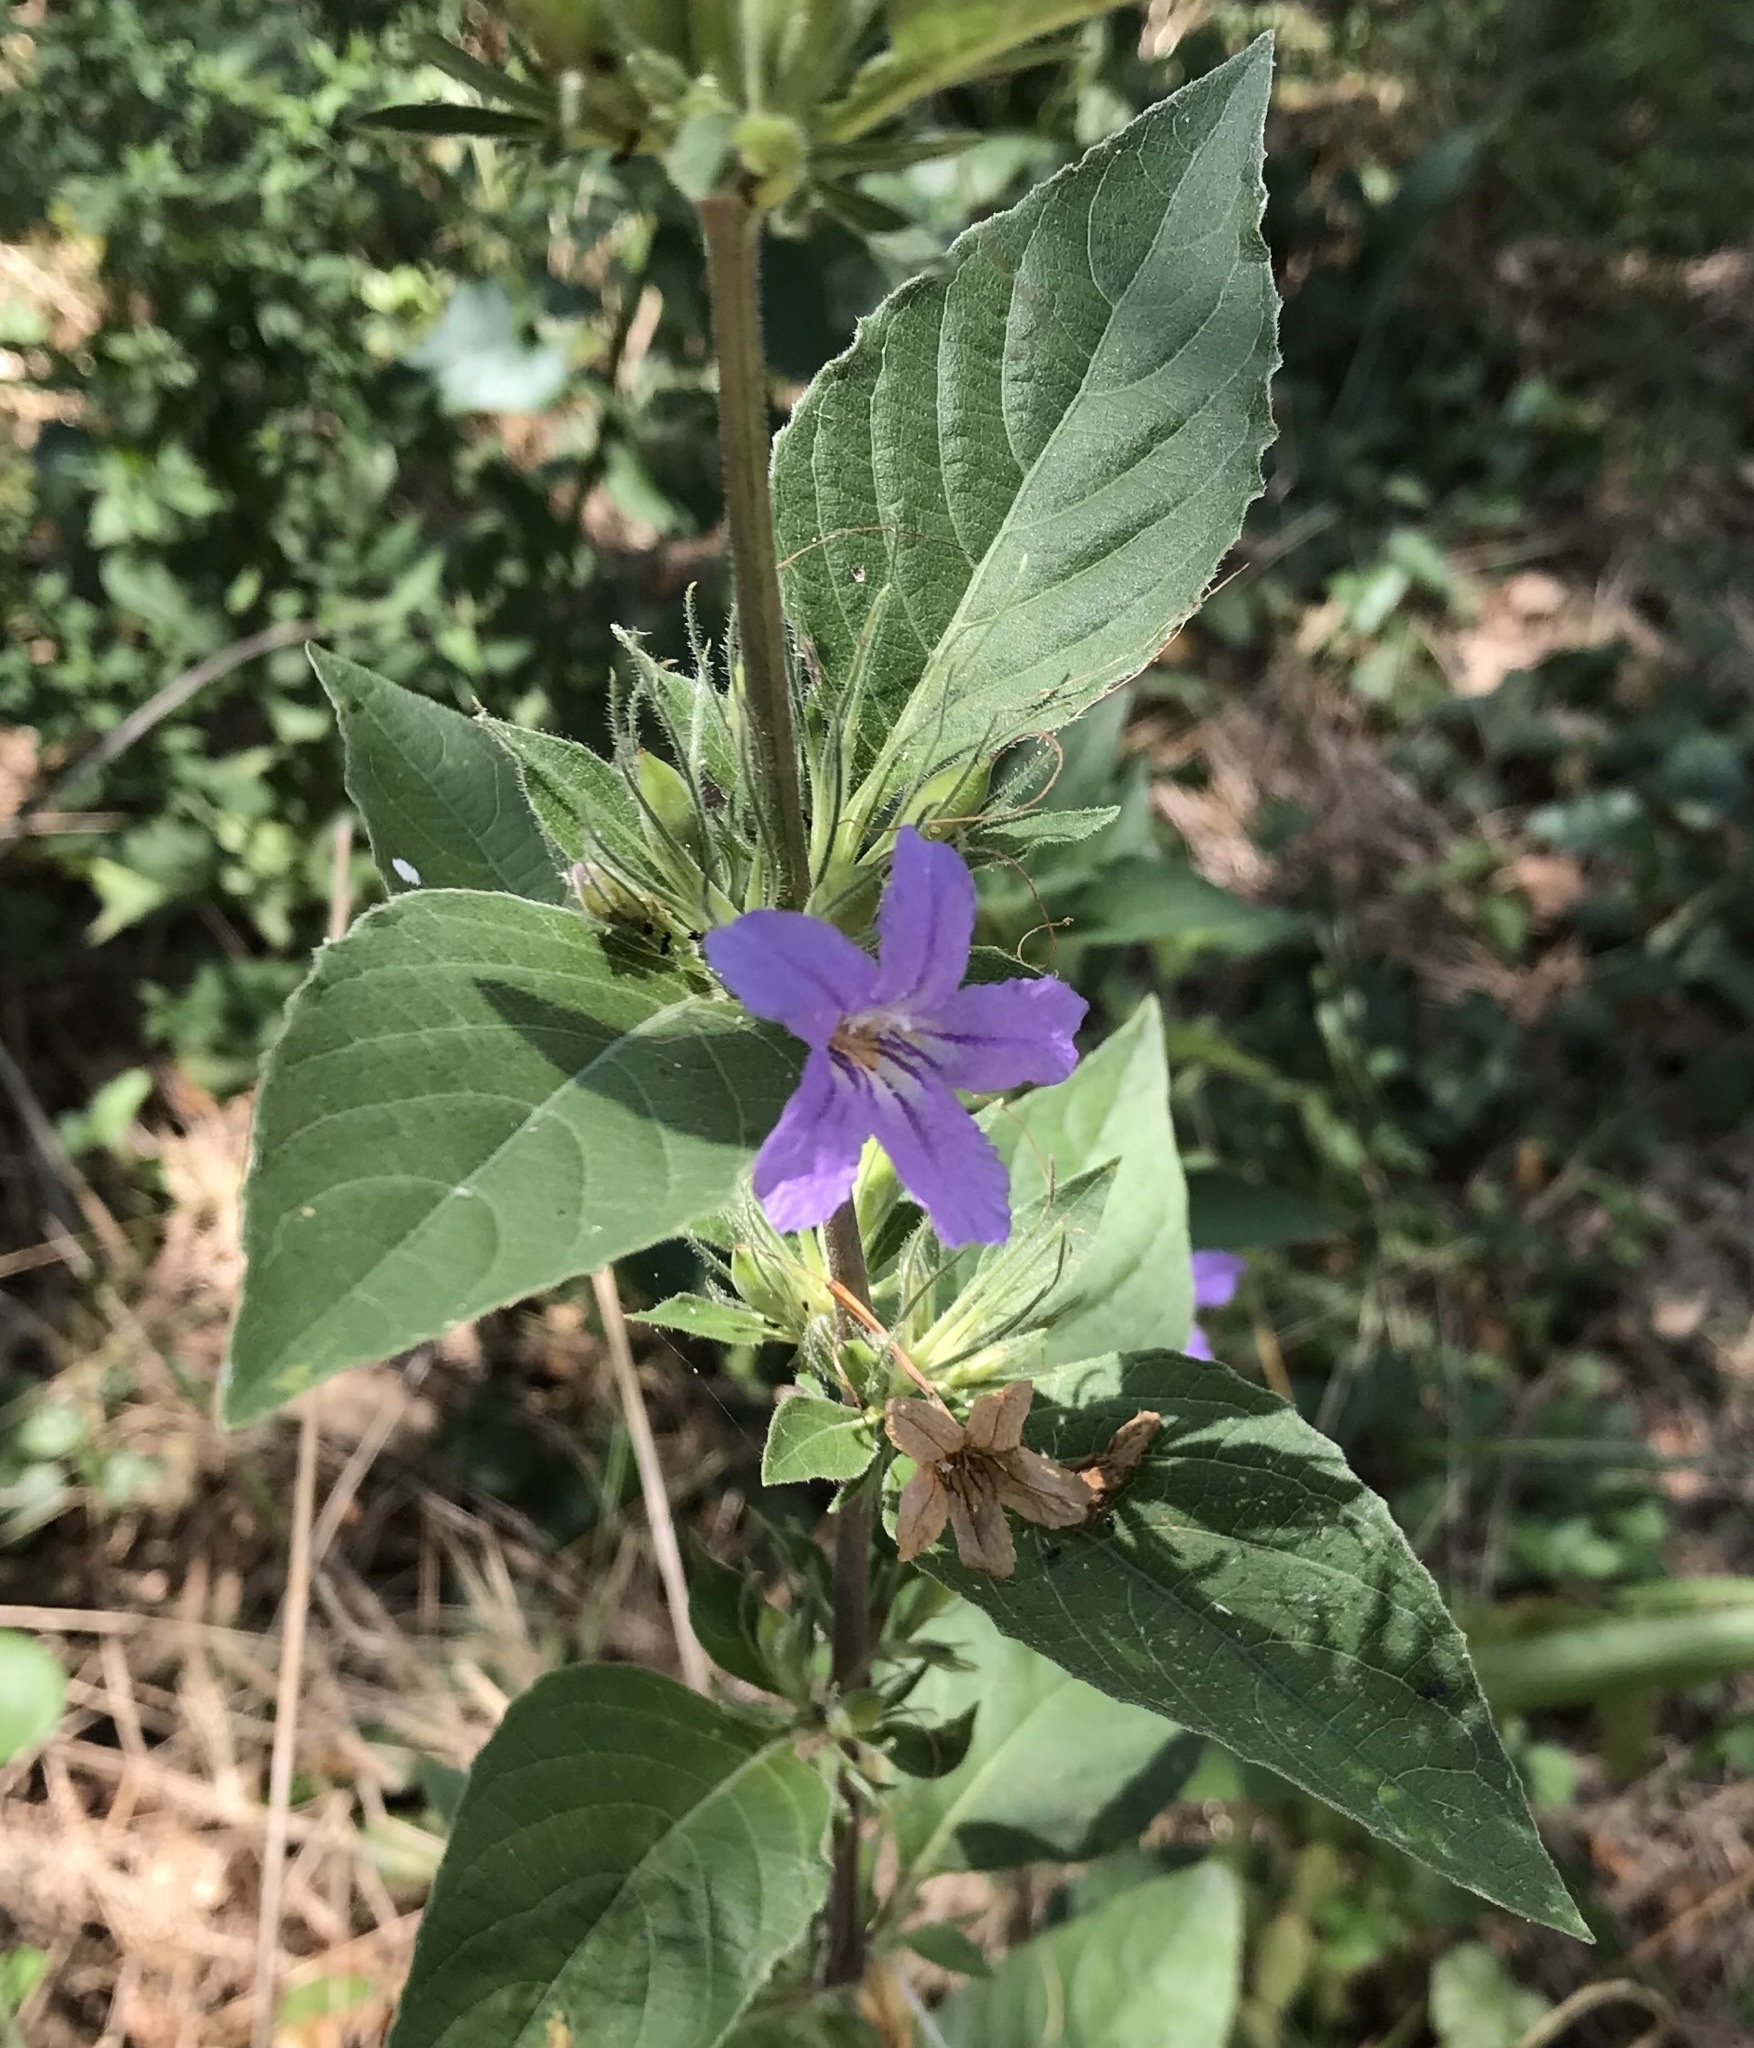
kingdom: Plantae
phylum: Tracheophyta
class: Magnoliopsida
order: Lamiales
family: Acanthaceae
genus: Ruellia
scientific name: Ruellia drummondiana
